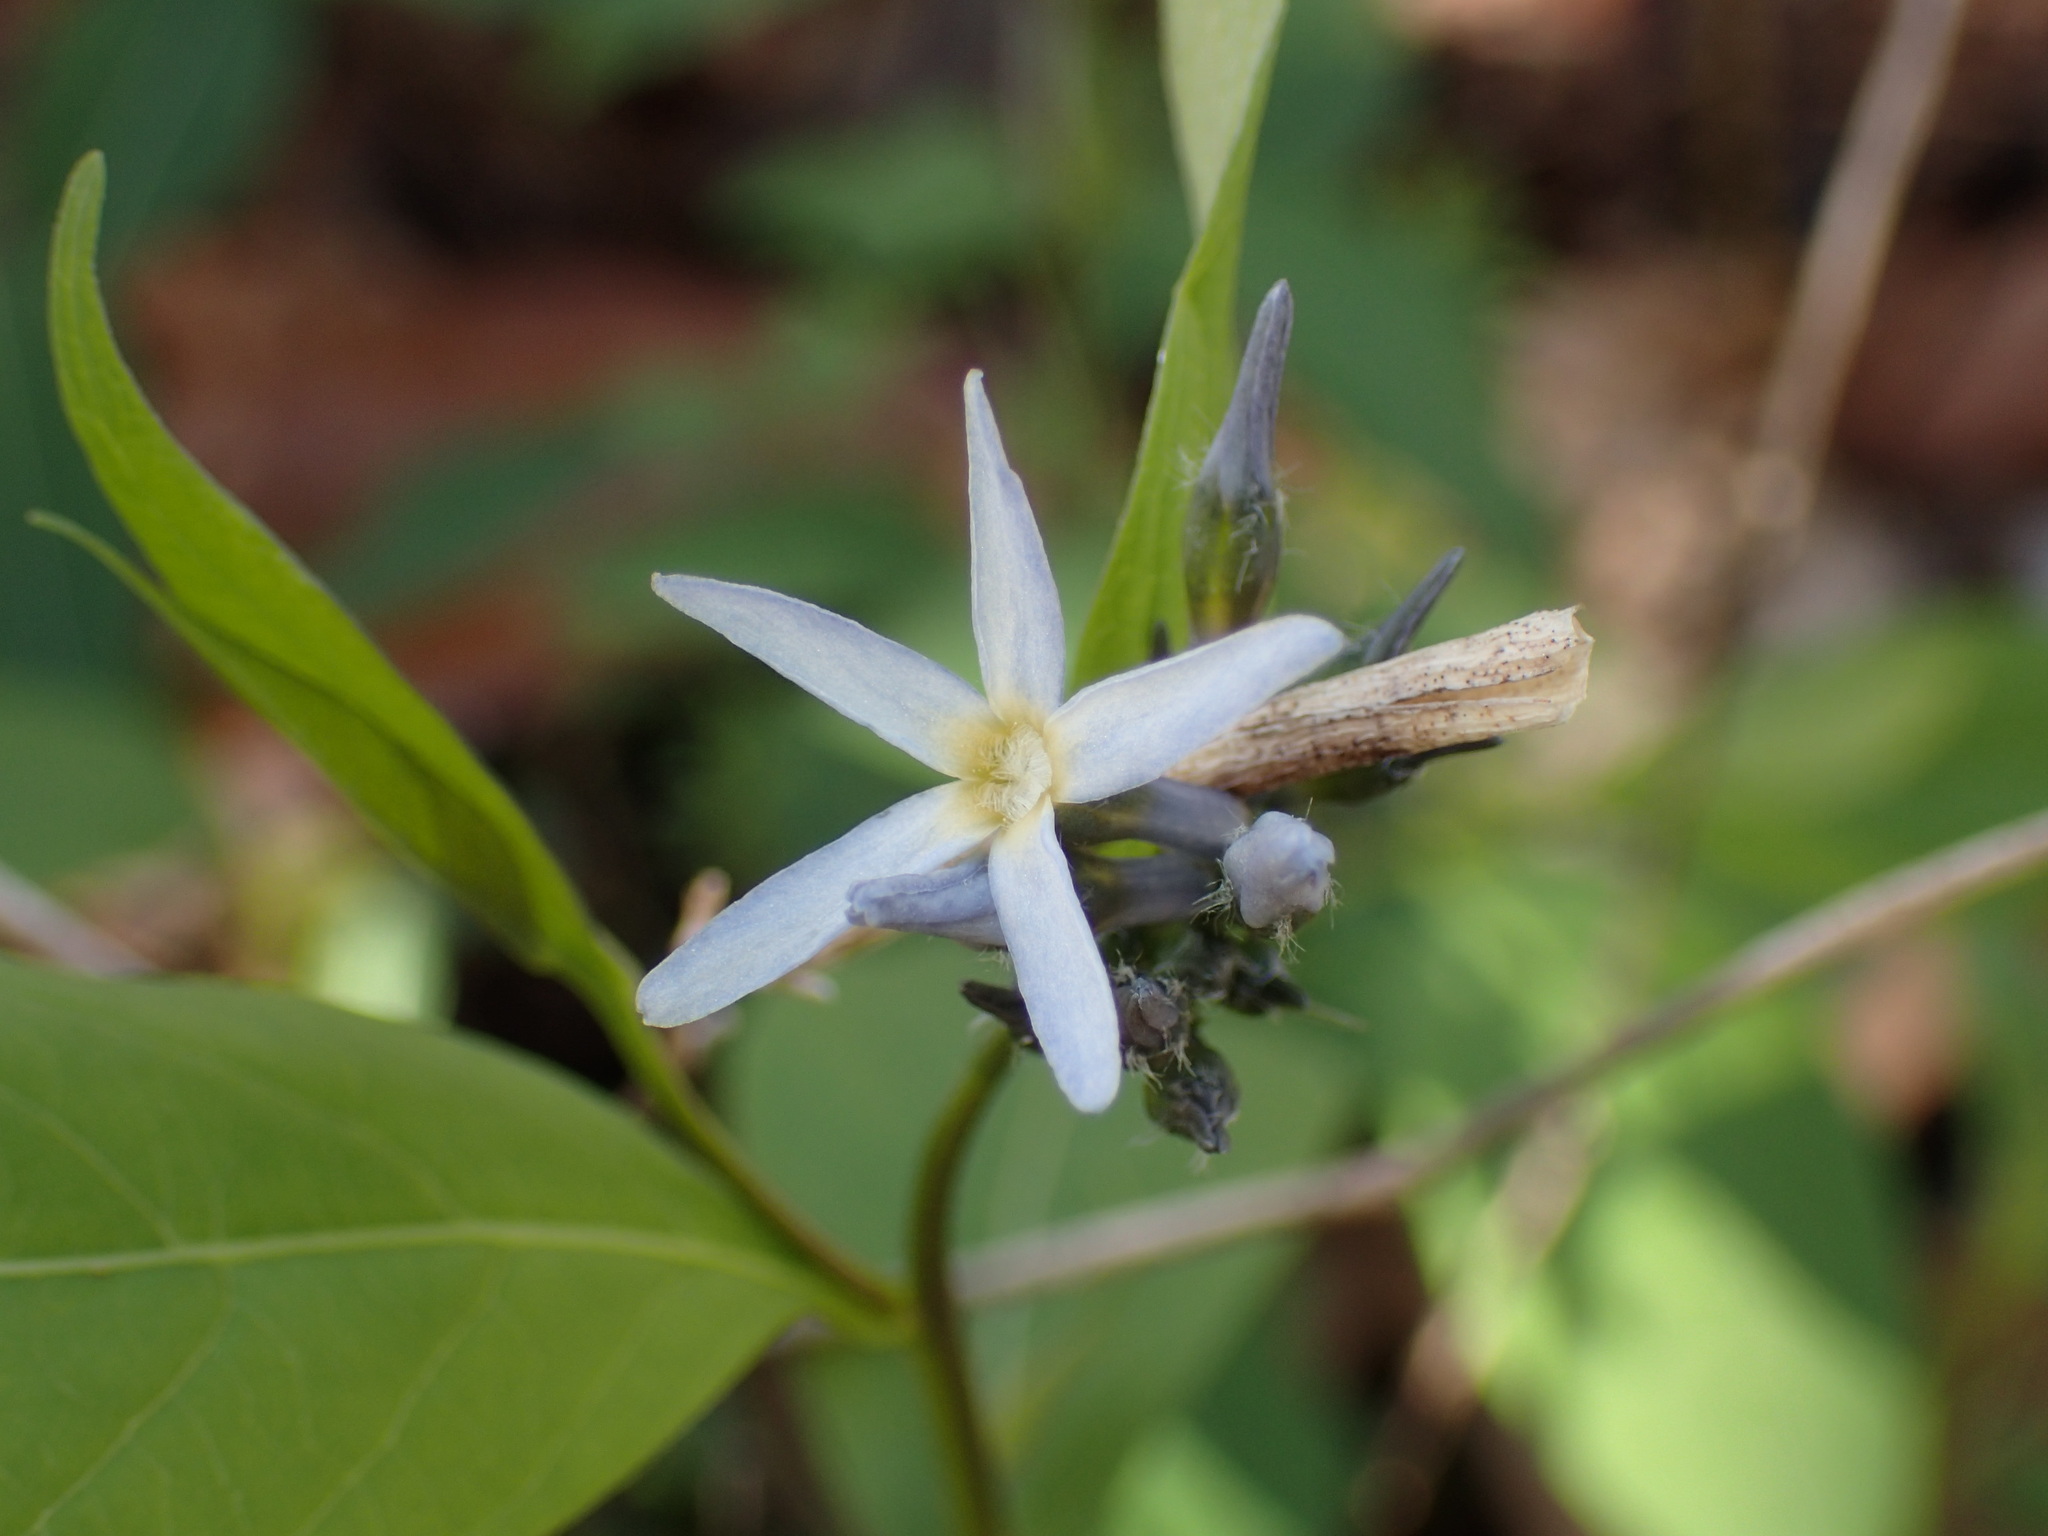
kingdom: Plantae
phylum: Tracheophyta
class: Magnoliopsida
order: Gentianales
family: Apocynaceae
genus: Amsonia
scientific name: Amsonia tabernaemontana
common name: Texas-star
